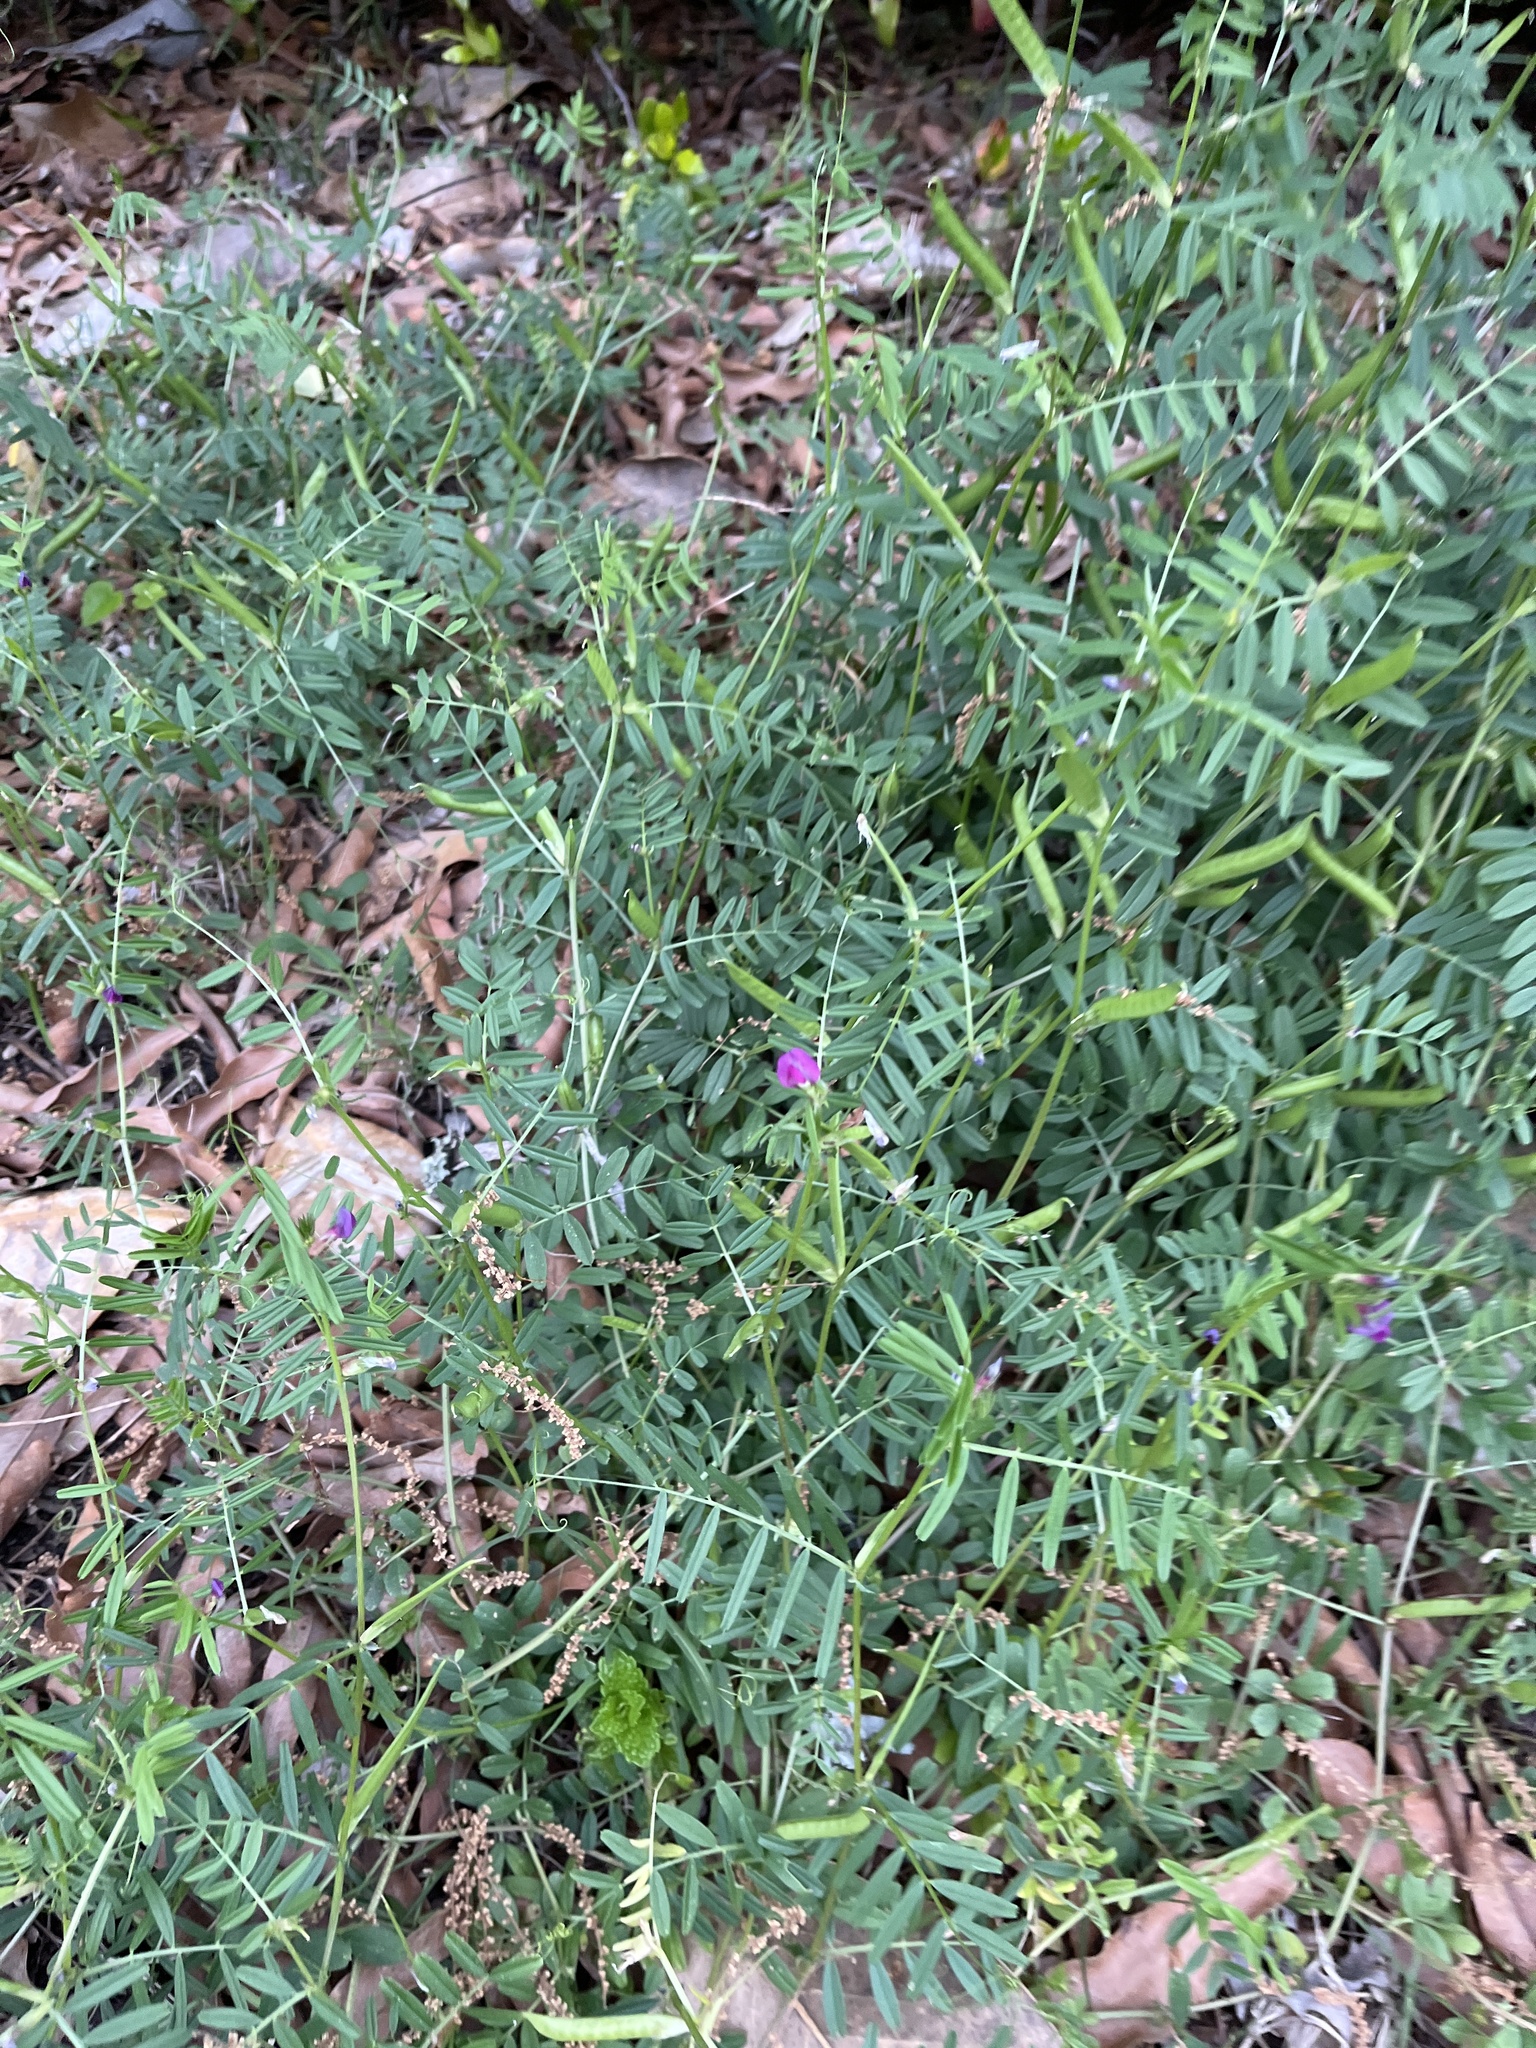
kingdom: Plantae
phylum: Tracheophyta
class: Magnoliopsida
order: Fabales
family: Fabaceae
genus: Vicia
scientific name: Vicia sativa
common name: Garden vetch
